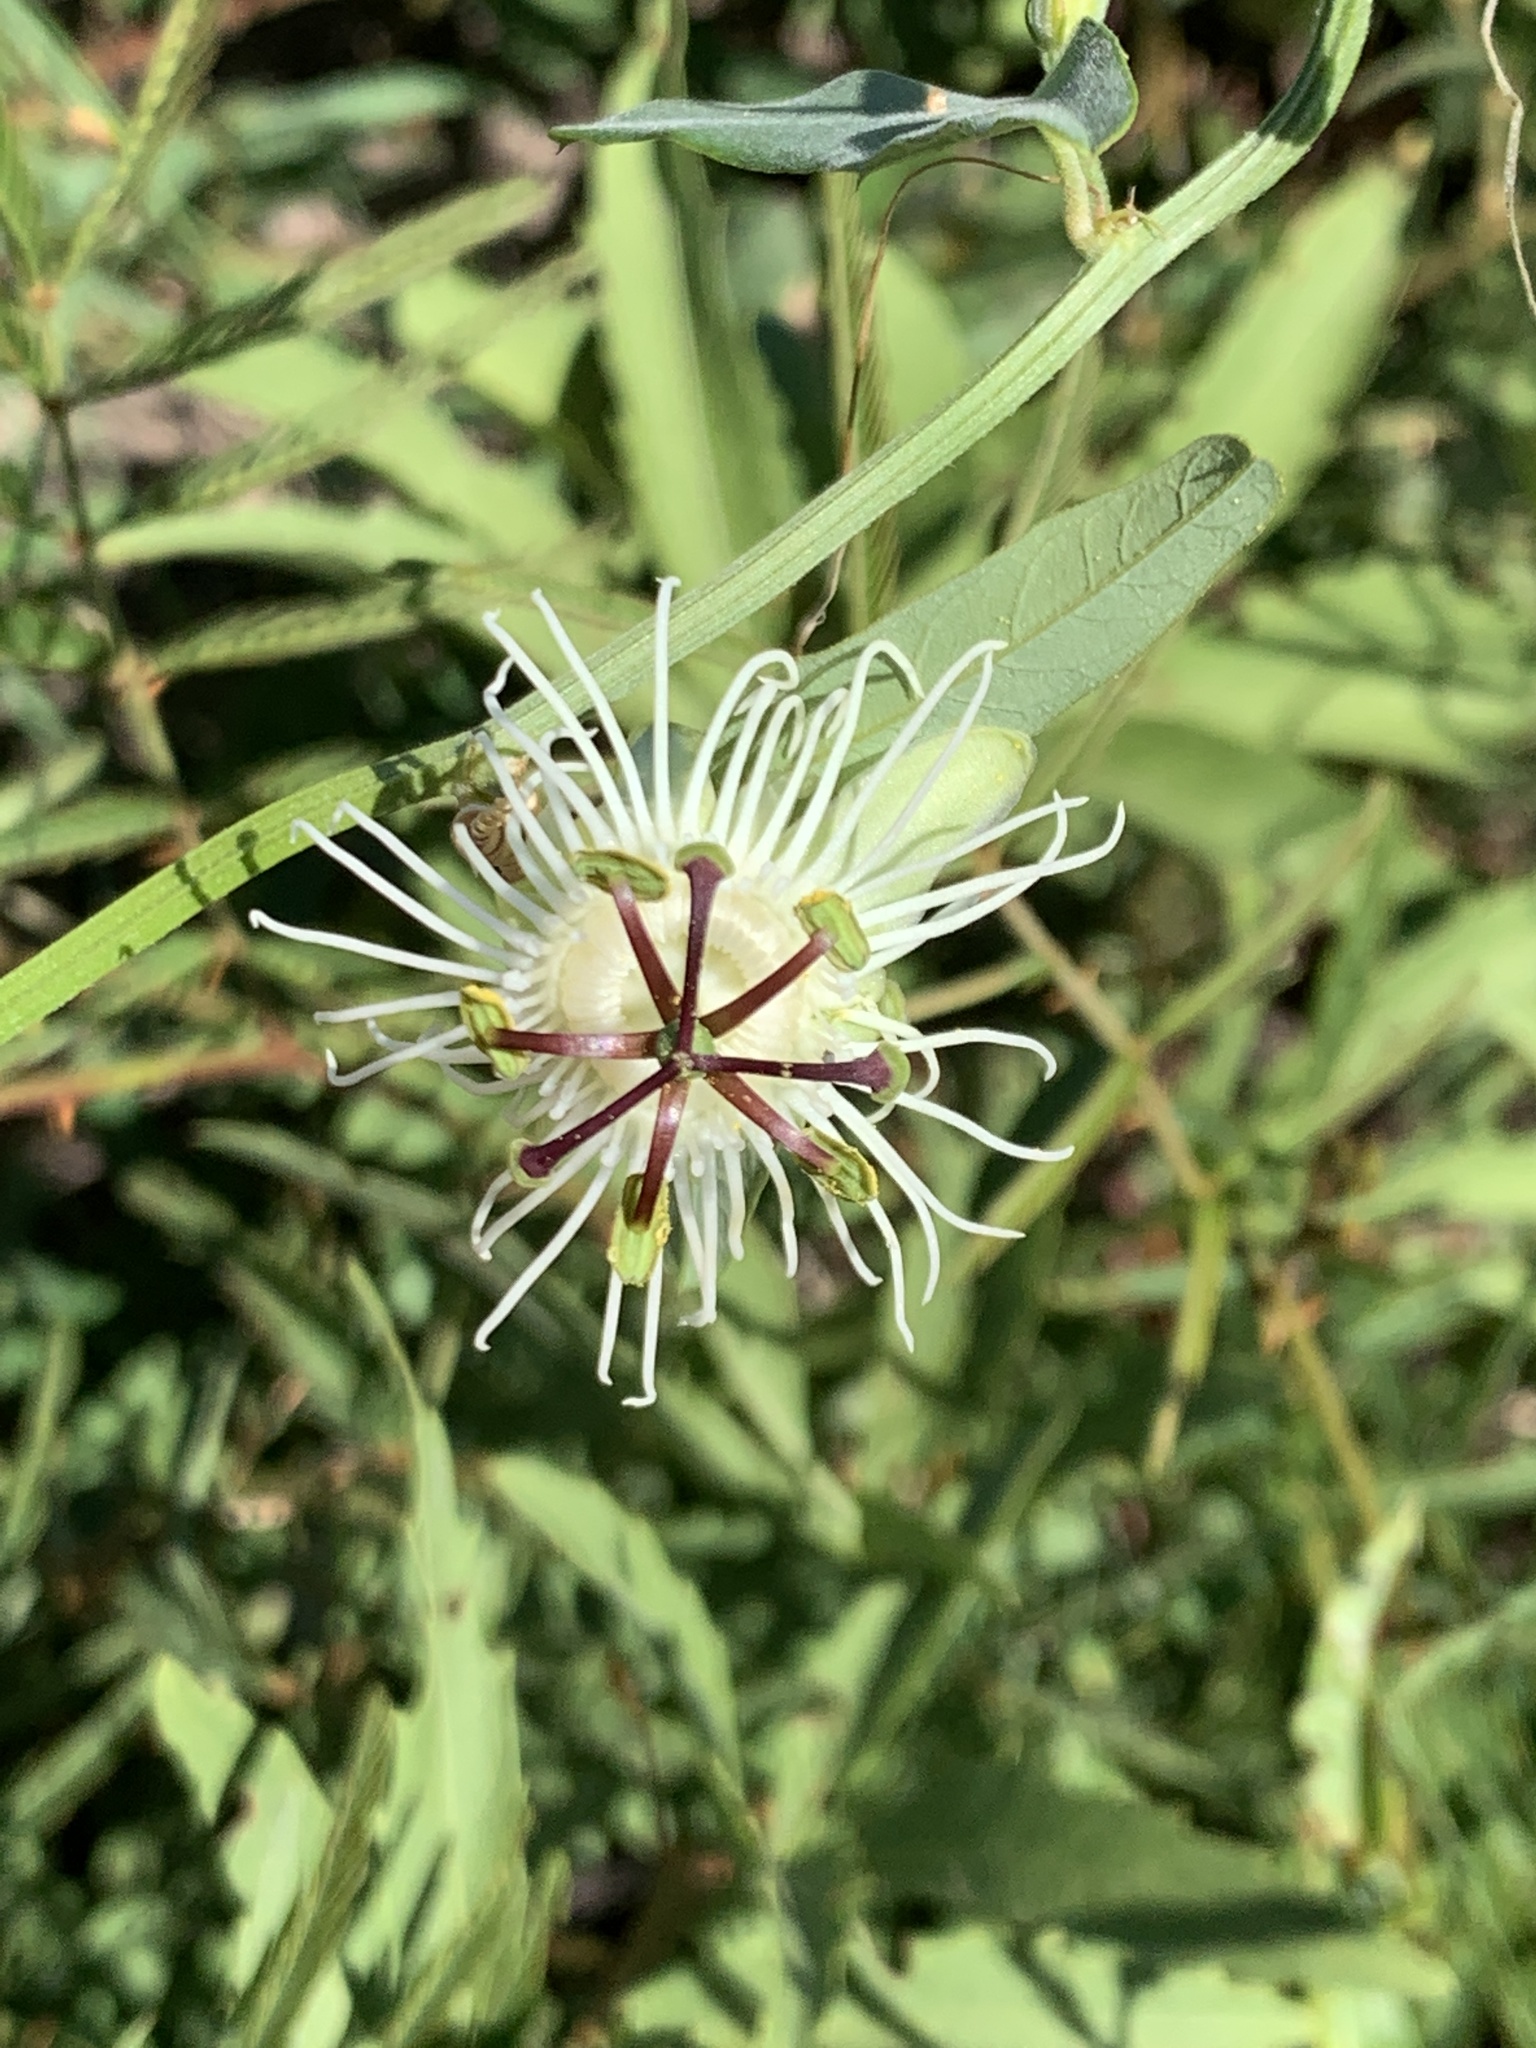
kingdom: Plantae
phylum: Tracheophyta
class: Magnoliopsida
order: Malpighiales
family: Passifloraceae
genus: Passiflora
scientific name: Passiflora misera
